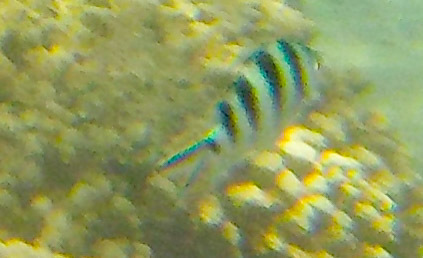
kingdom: Animalia
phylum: Chordata
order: Perciformes
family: Pomacentridae
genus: Abudefduf
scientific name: Abudefduf sexfasciatus
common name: Scissortail sergeant
